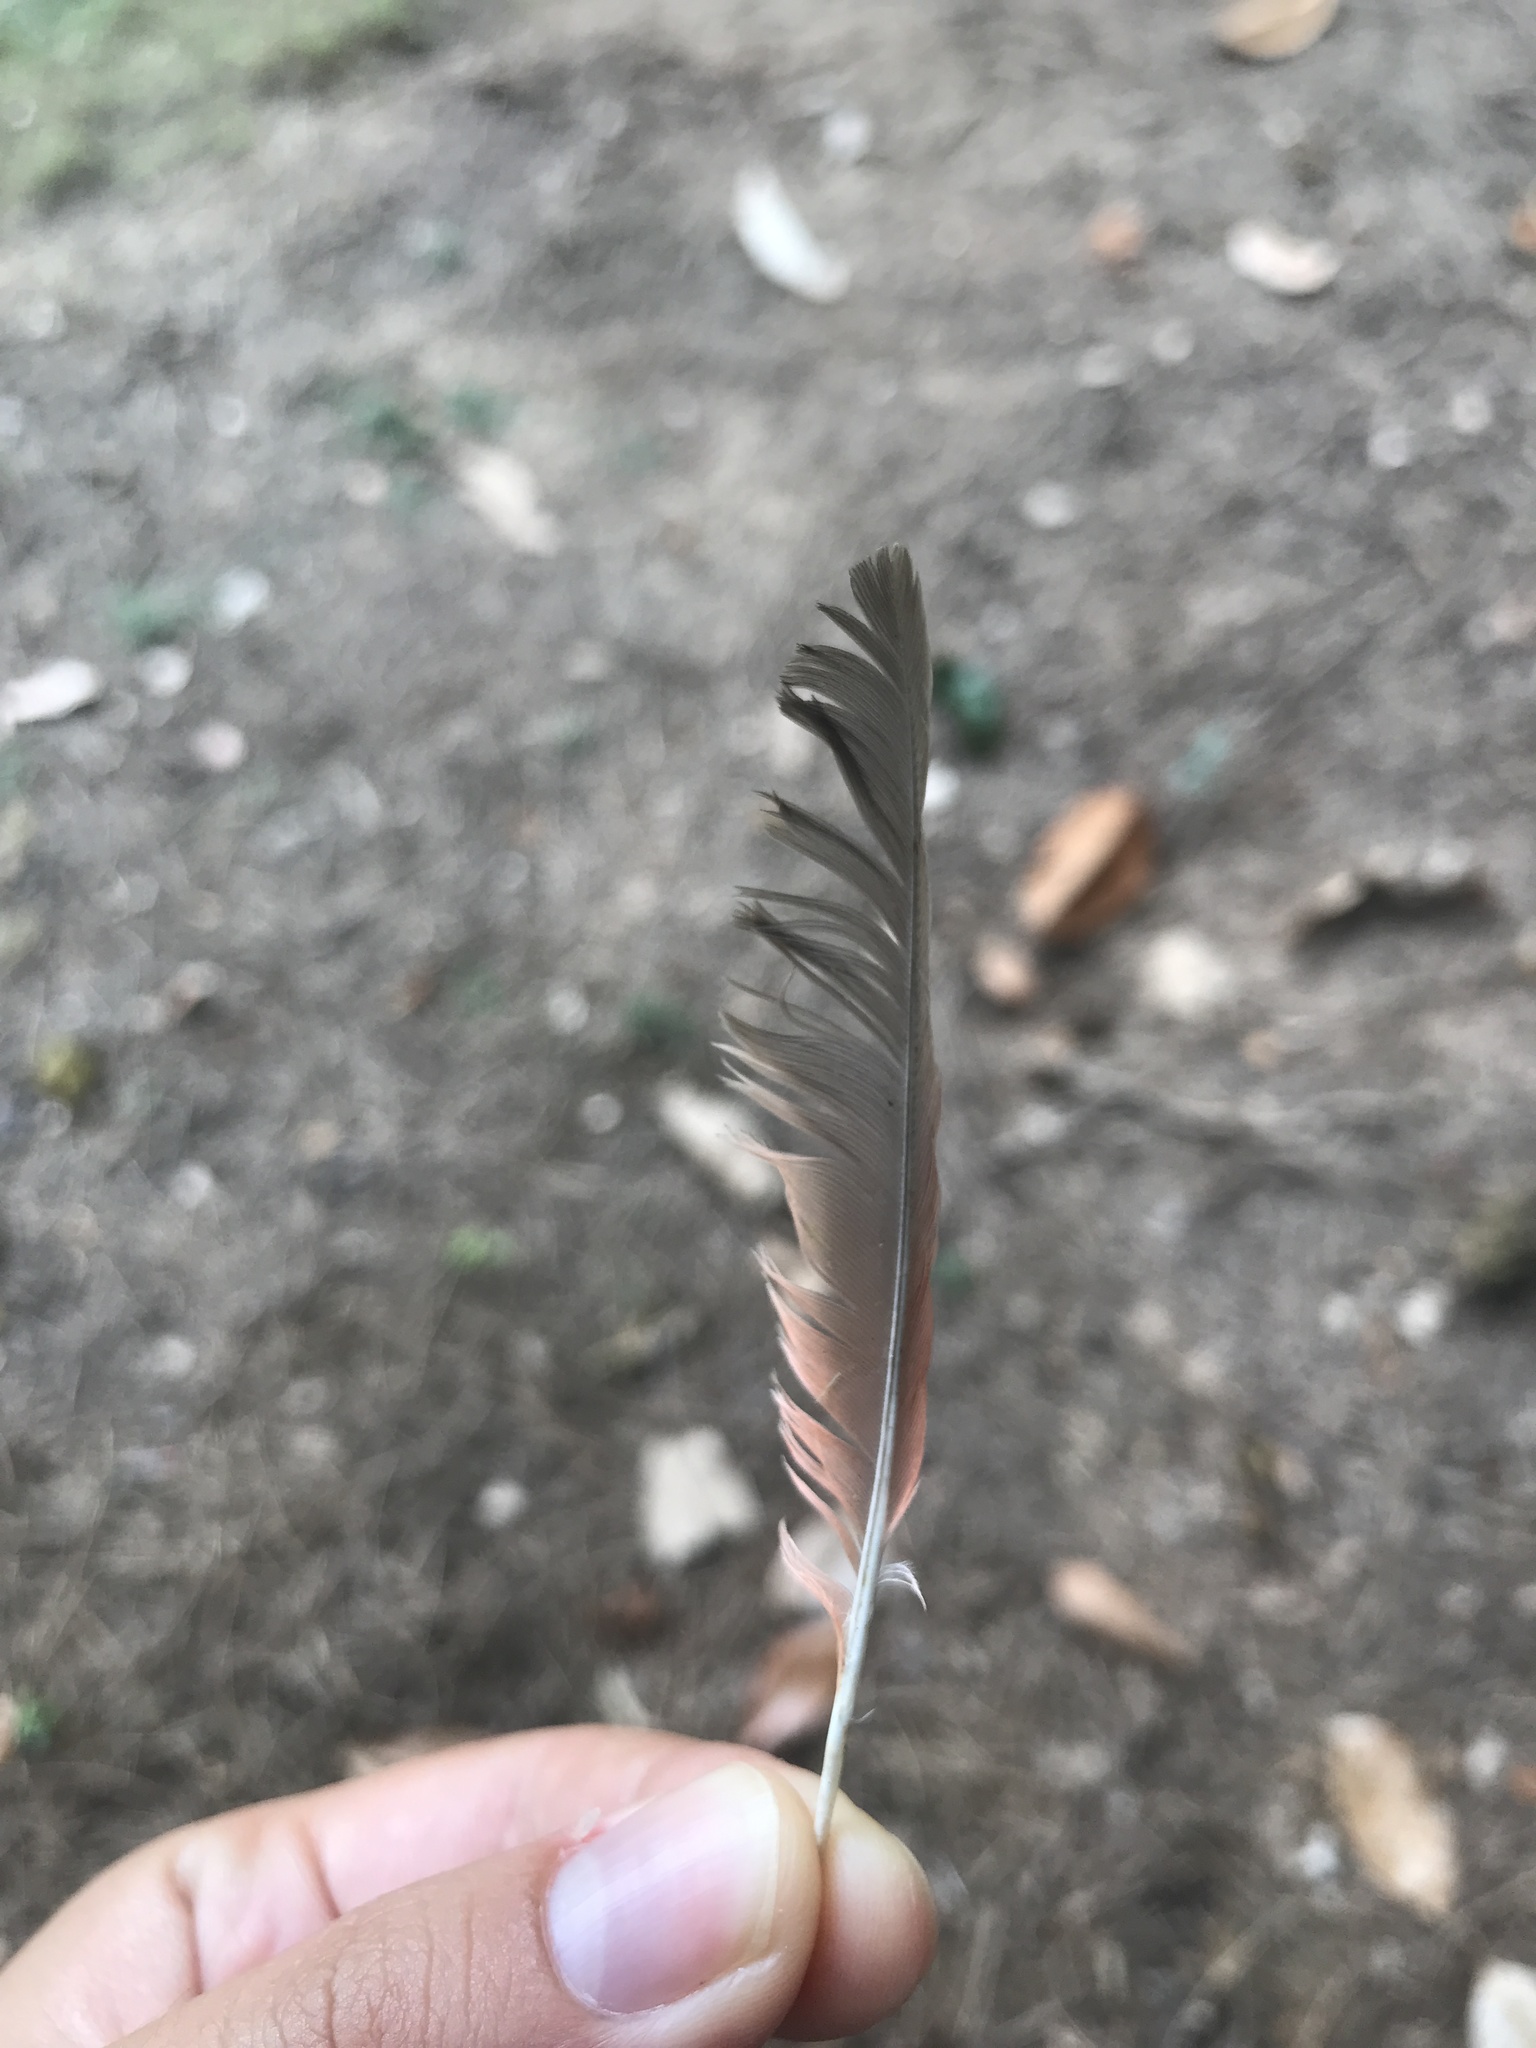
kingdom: Animalia
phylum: Chordata
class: Aves
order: Passeriformes
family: Cardinalidae
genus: Cardinalis
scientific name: Cardinalis cardinalis
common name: Northern cardinal
